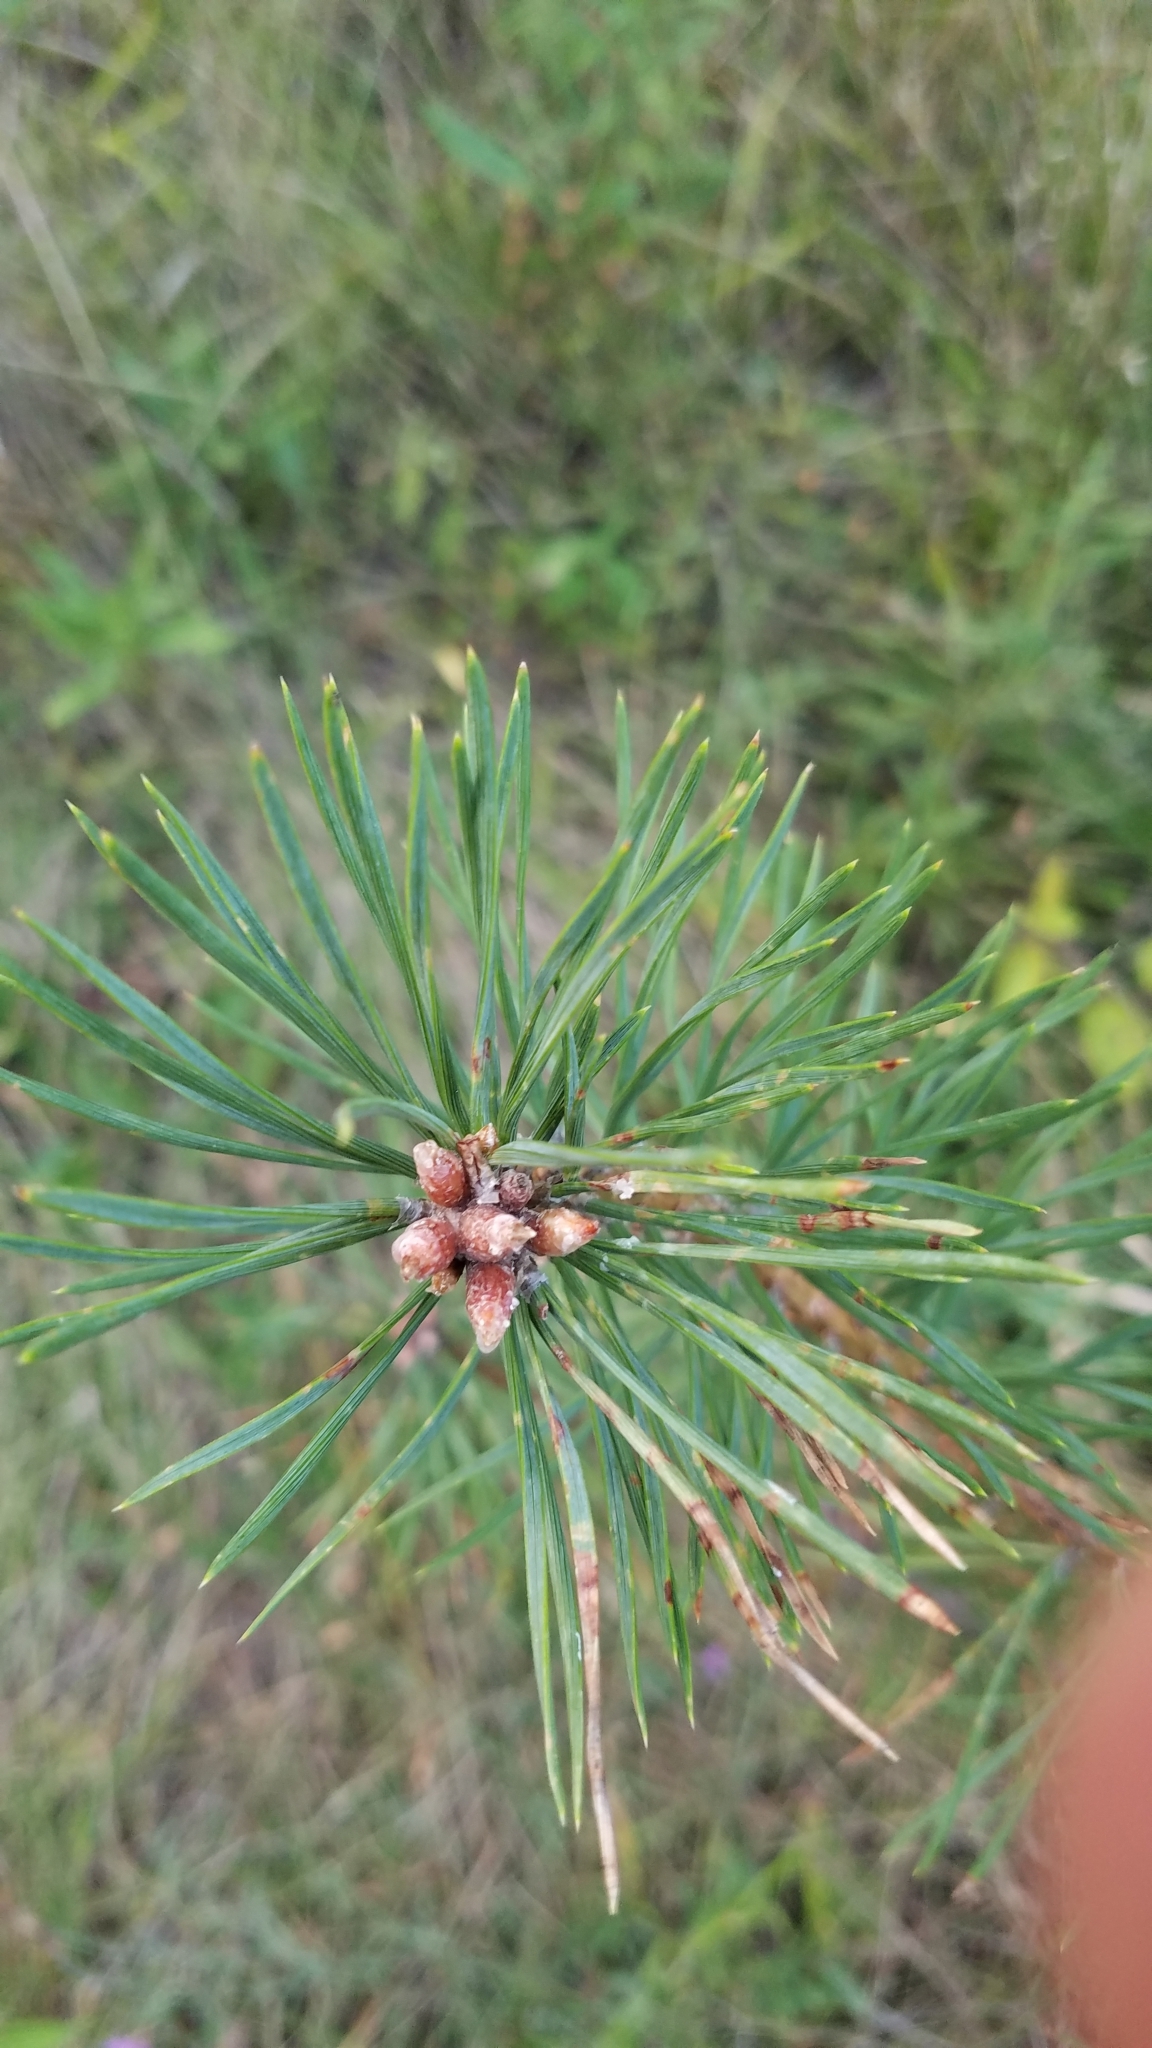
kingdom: Plantae
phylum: Tracheophyta
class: Pinopsida
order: Pinales
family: Pinaceae
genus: Pinus
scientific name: Pinus sylvestris
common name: Scots pine
